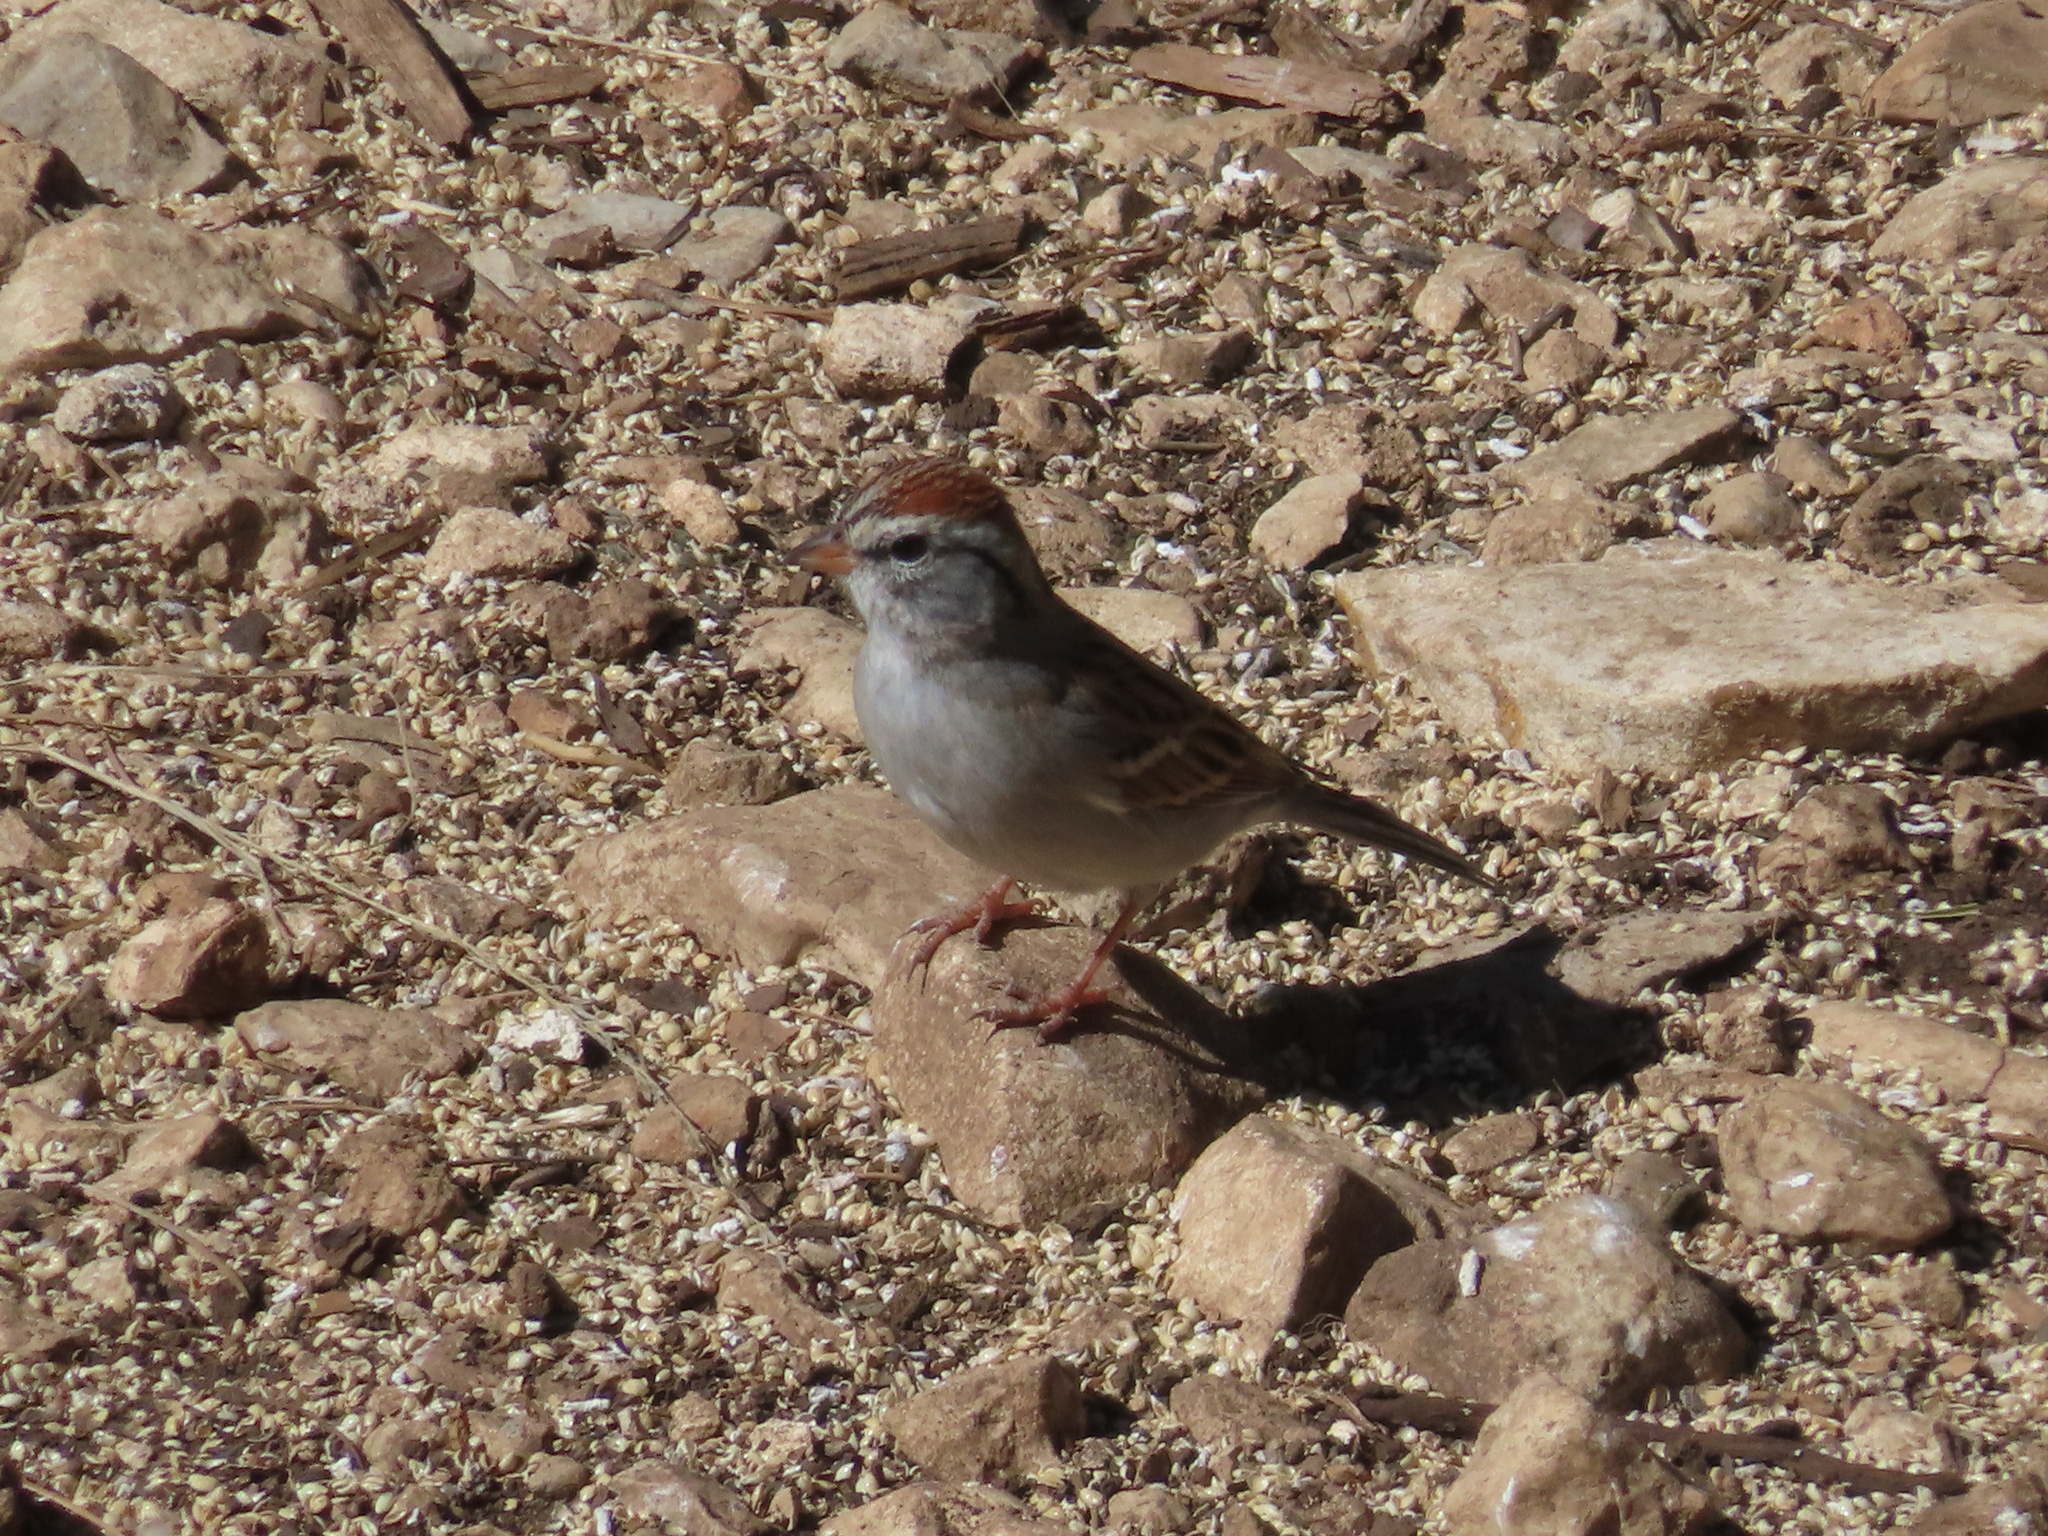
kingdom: Animalia
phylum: Chordata
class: Aves
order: Passeriformes
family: Passerellidae
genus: Spizella
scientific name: Spizella passerina
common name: Chipping sparrow
